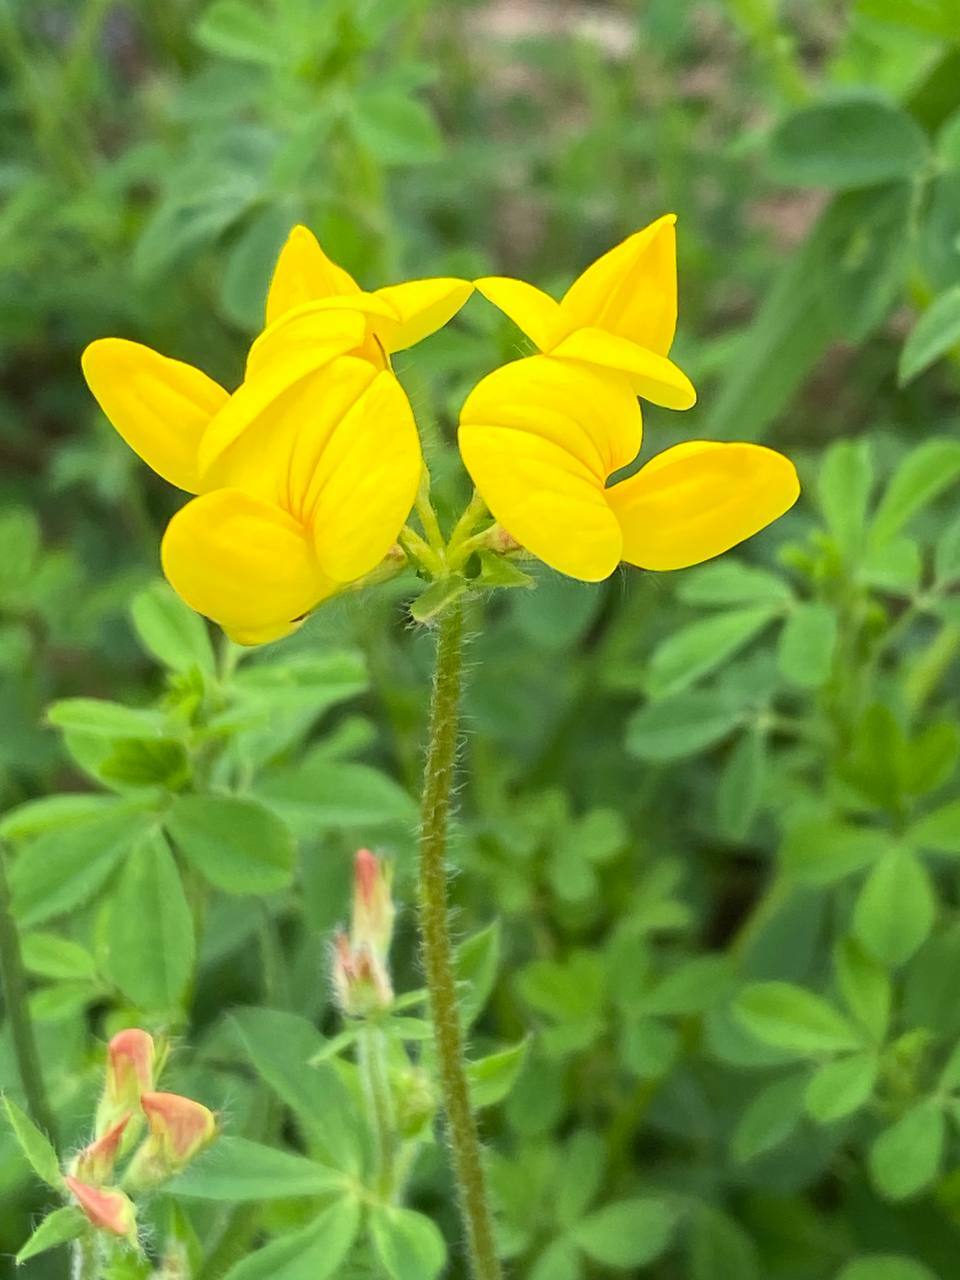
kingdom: Plantae
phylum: Tracheophyta
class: Magnoliopsida
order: Fabales
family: Fabaceae
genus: Lotus
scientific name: Lotus corniculatus
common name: Common bird's-foot-trefoil
